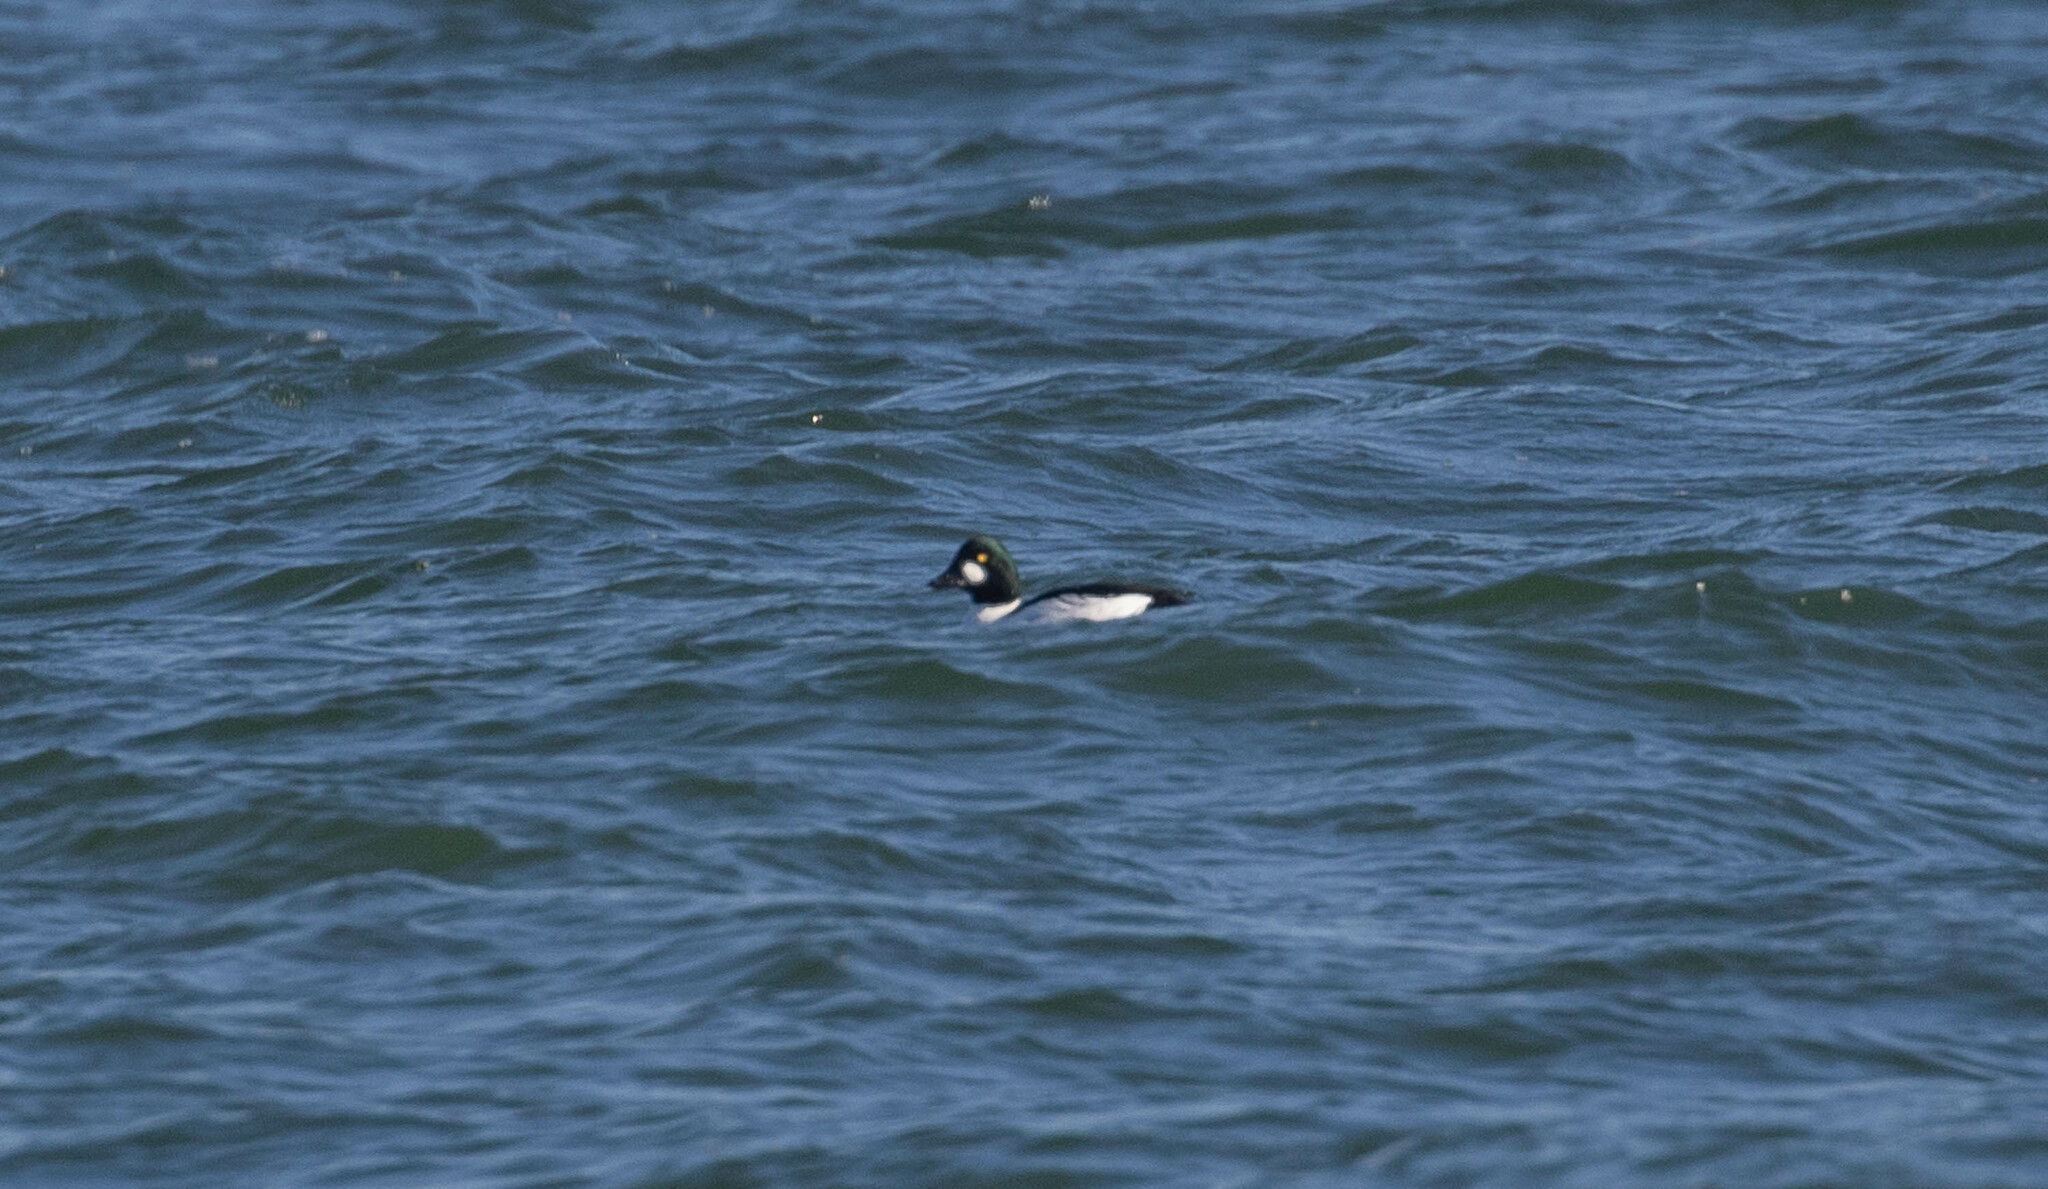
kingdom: Animalia
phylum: Chordata
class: Aves
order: Anseriformes
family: Anatidae
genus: Bucephala
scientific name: Bucephala clangula
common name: Common goldeneye
